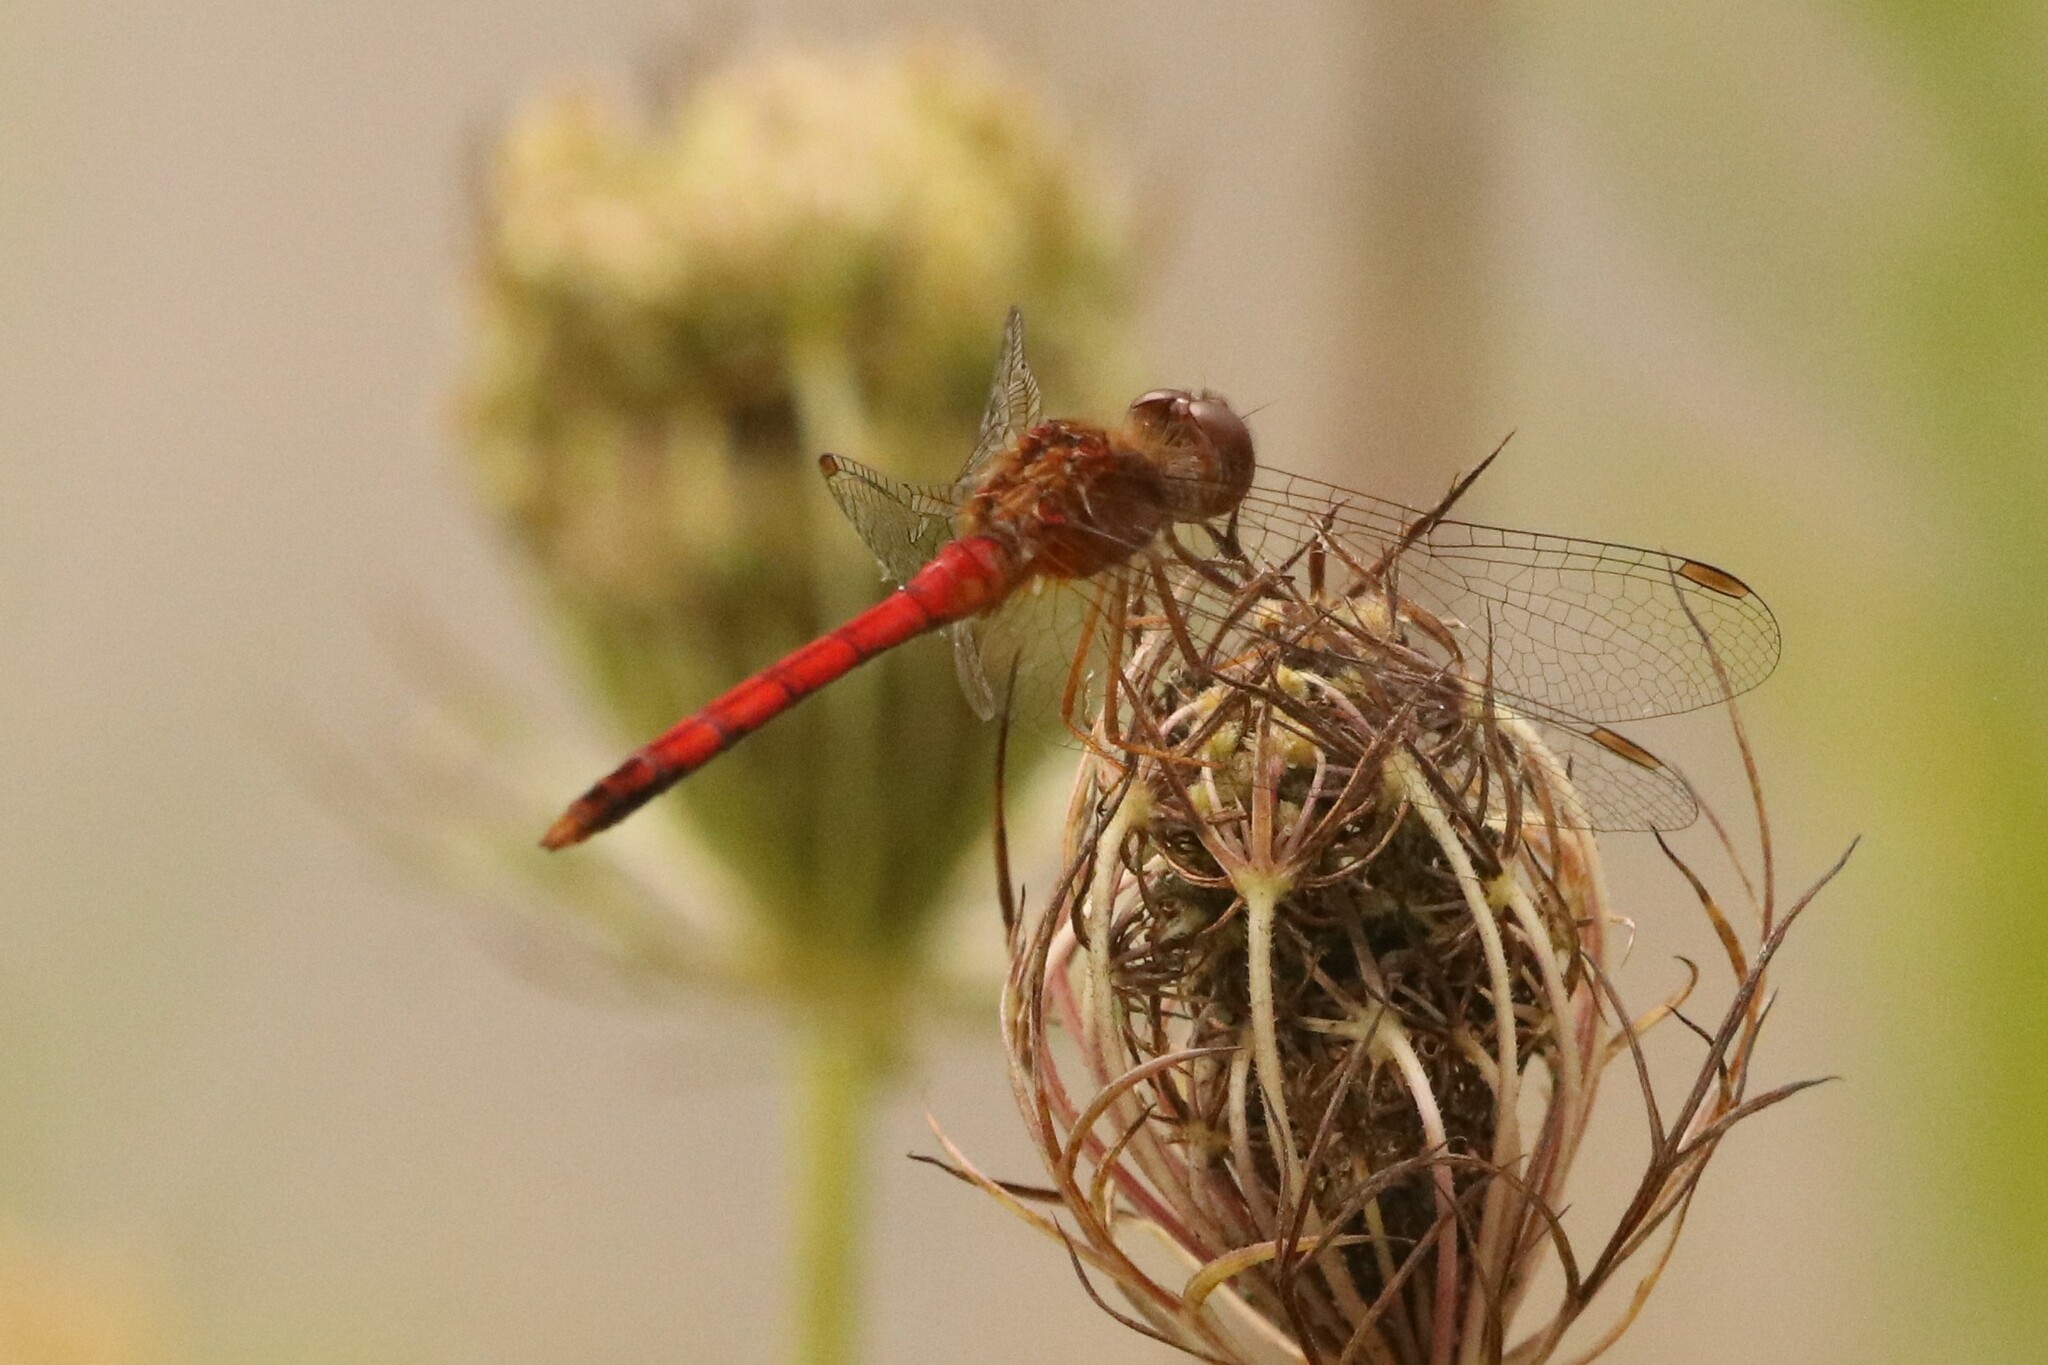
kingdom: Animalia
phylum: Arthropoda
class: Insecta
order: Odonata
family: Libellulidae
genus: Sympetrum
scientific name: Sympetrum vicinum
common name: Autumn meadowhawk
